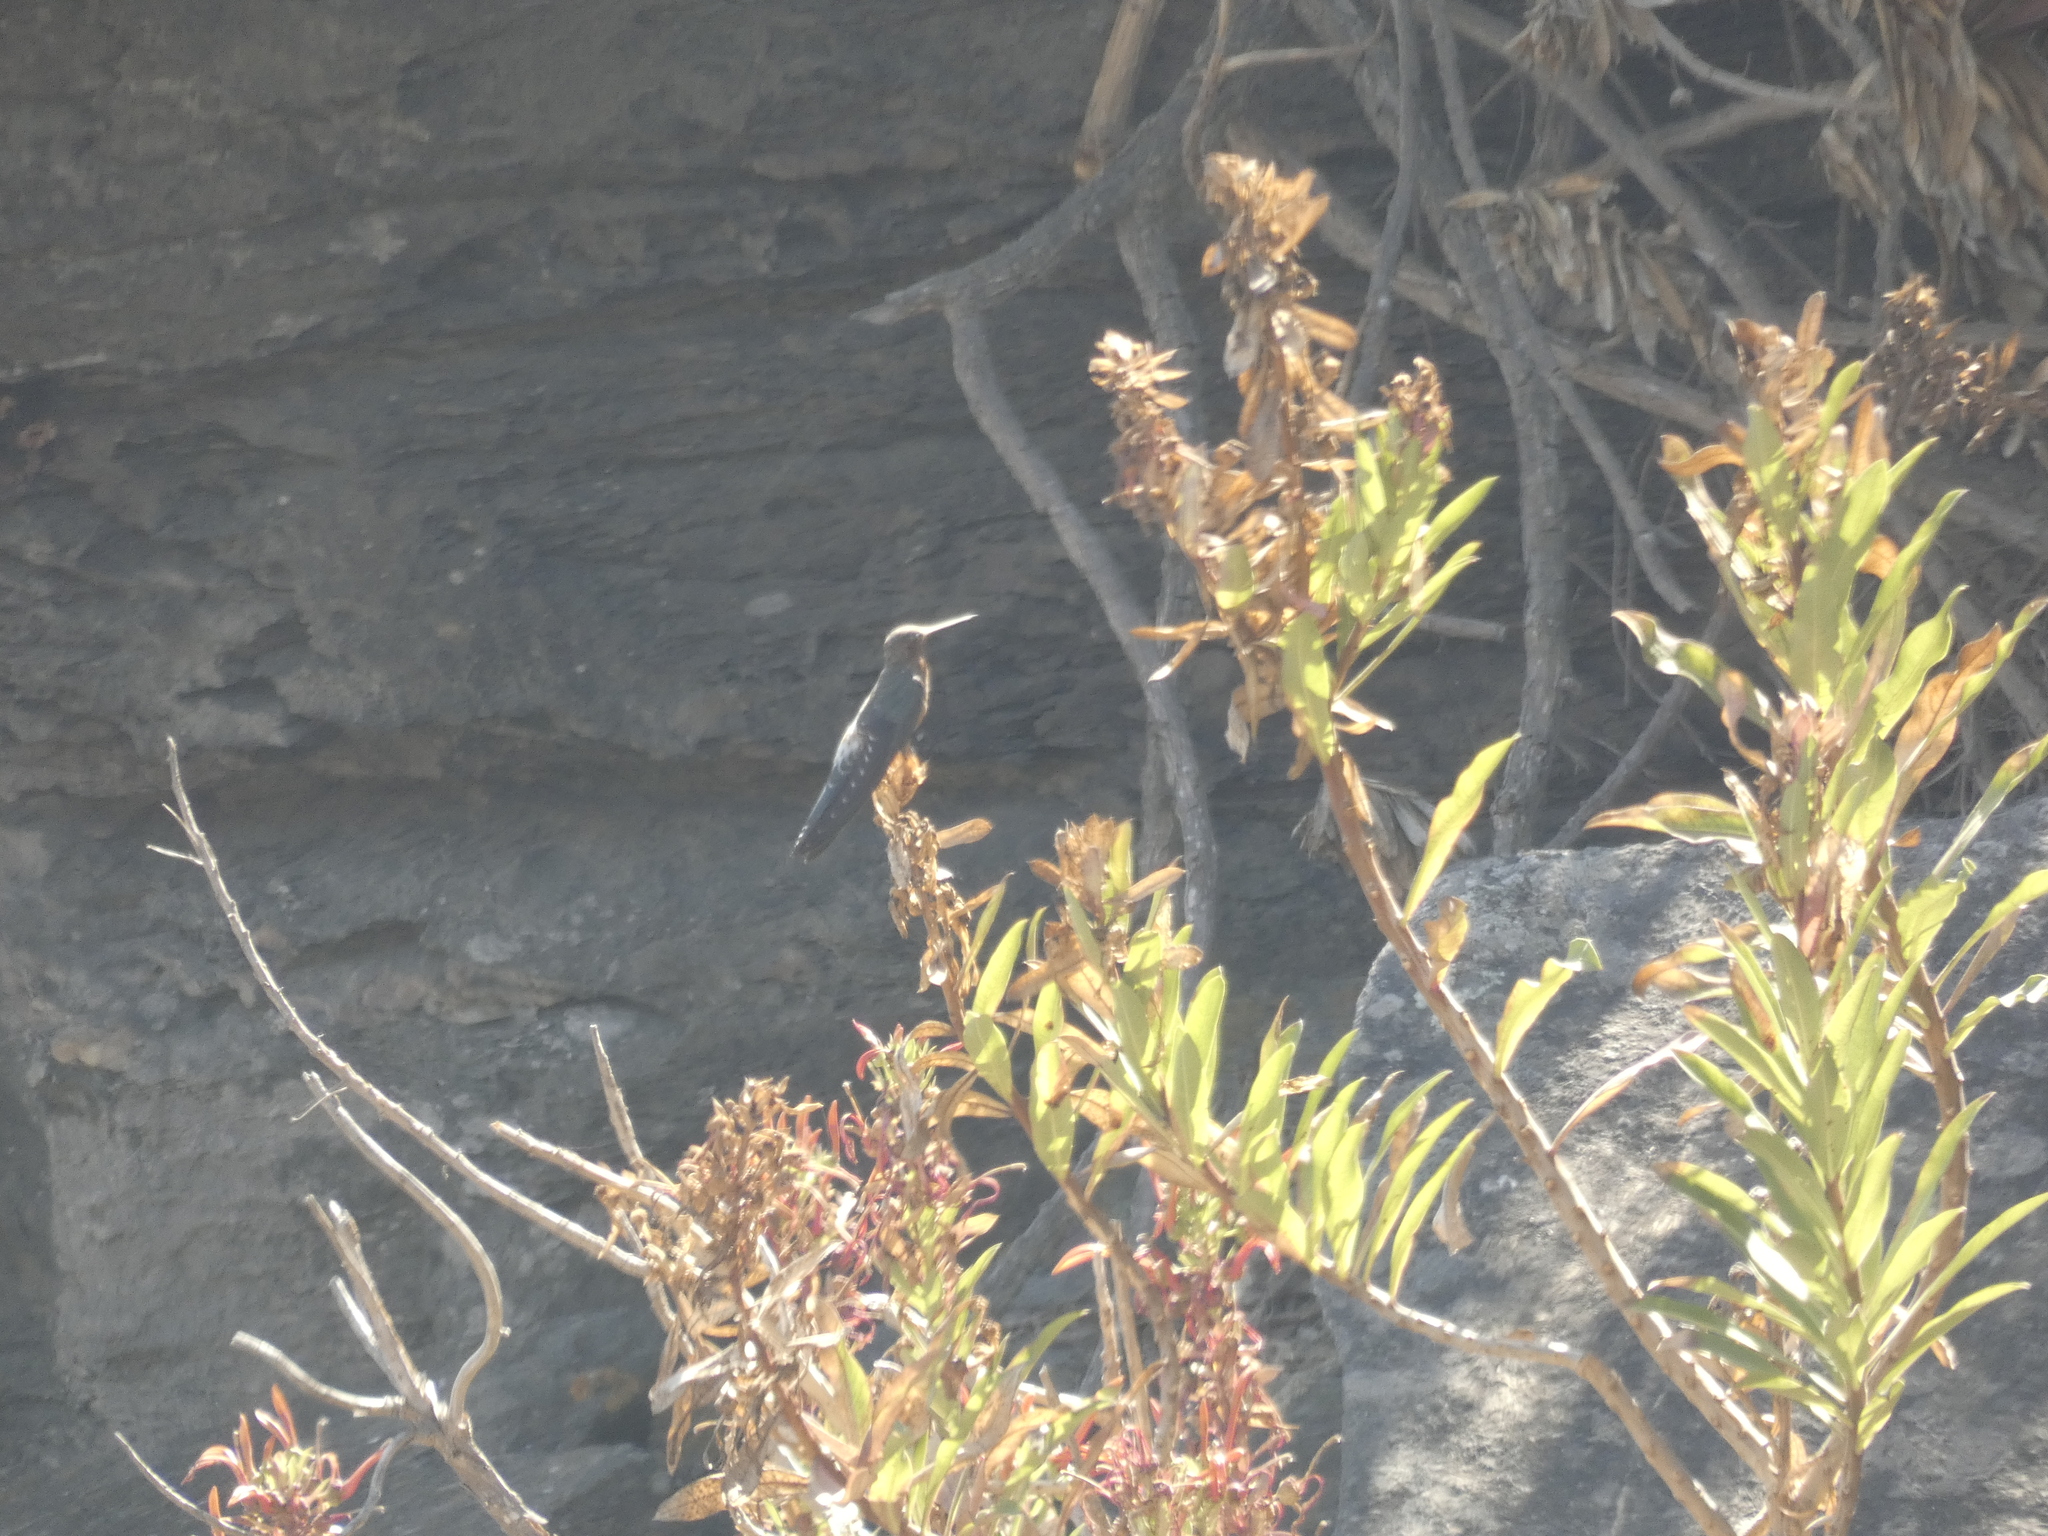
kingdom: Animalia
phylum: Chordata
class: Aves
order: Apodiformes
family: Trochilidae
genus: Patagona
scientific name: Patagona gigas
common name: Giant hummingbird
